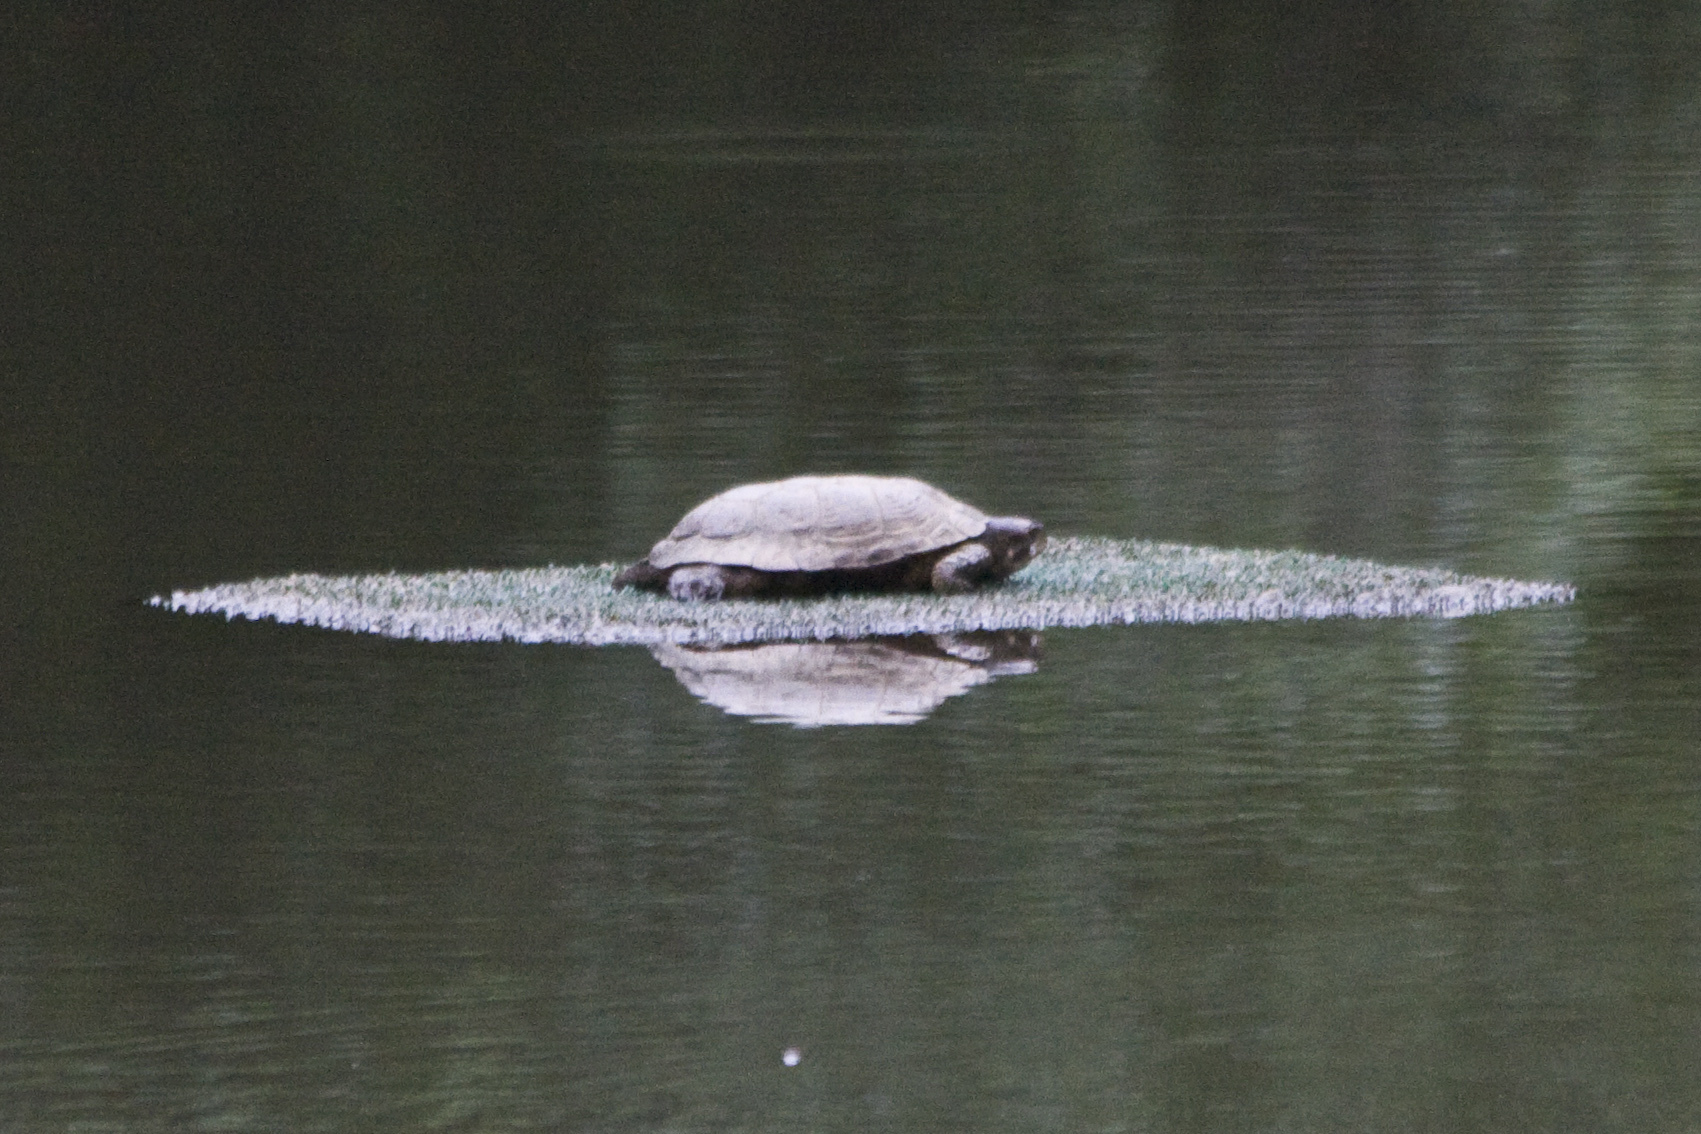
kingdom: Animalia
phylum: Chordata
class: Testudines
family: Emydidae
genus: Actinemys
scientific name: Actinemys marmorata
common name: Western pond turtle
